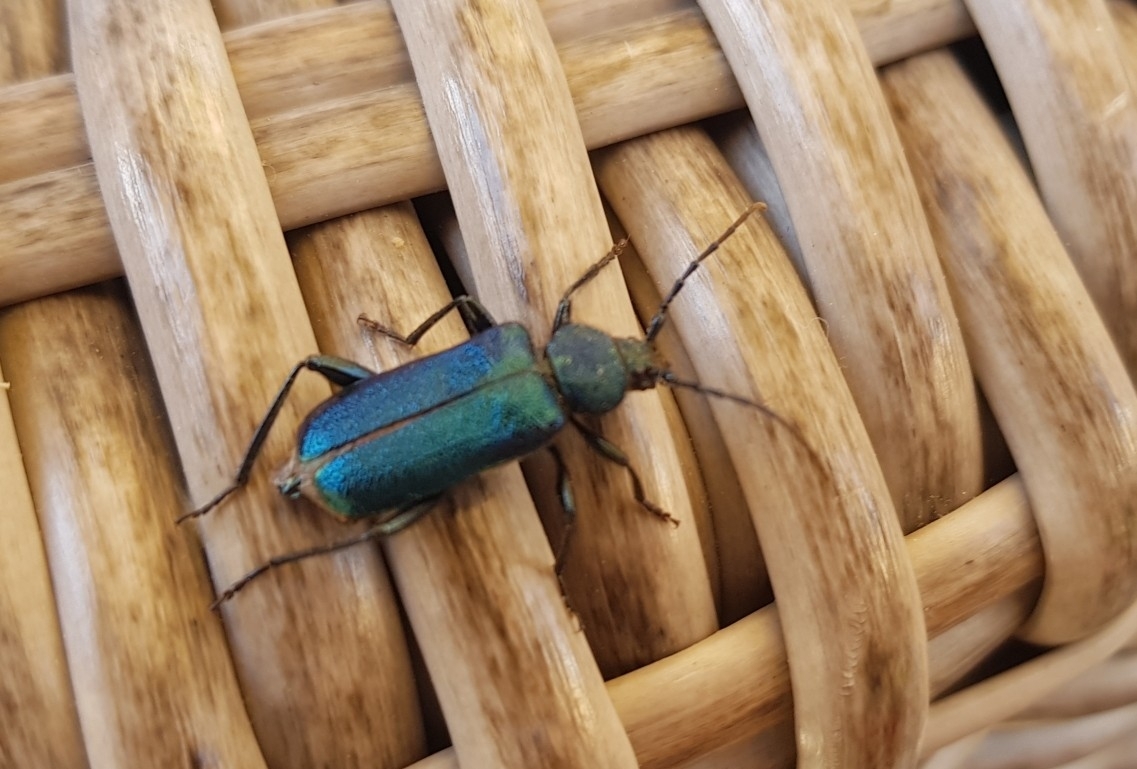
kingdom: Animalia
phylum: Arthropoda
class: Insecta
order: Coleoptera
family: Cerambycidae
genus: Callidium
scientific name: Callidium violaceum
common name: Violet tanbark beetle
